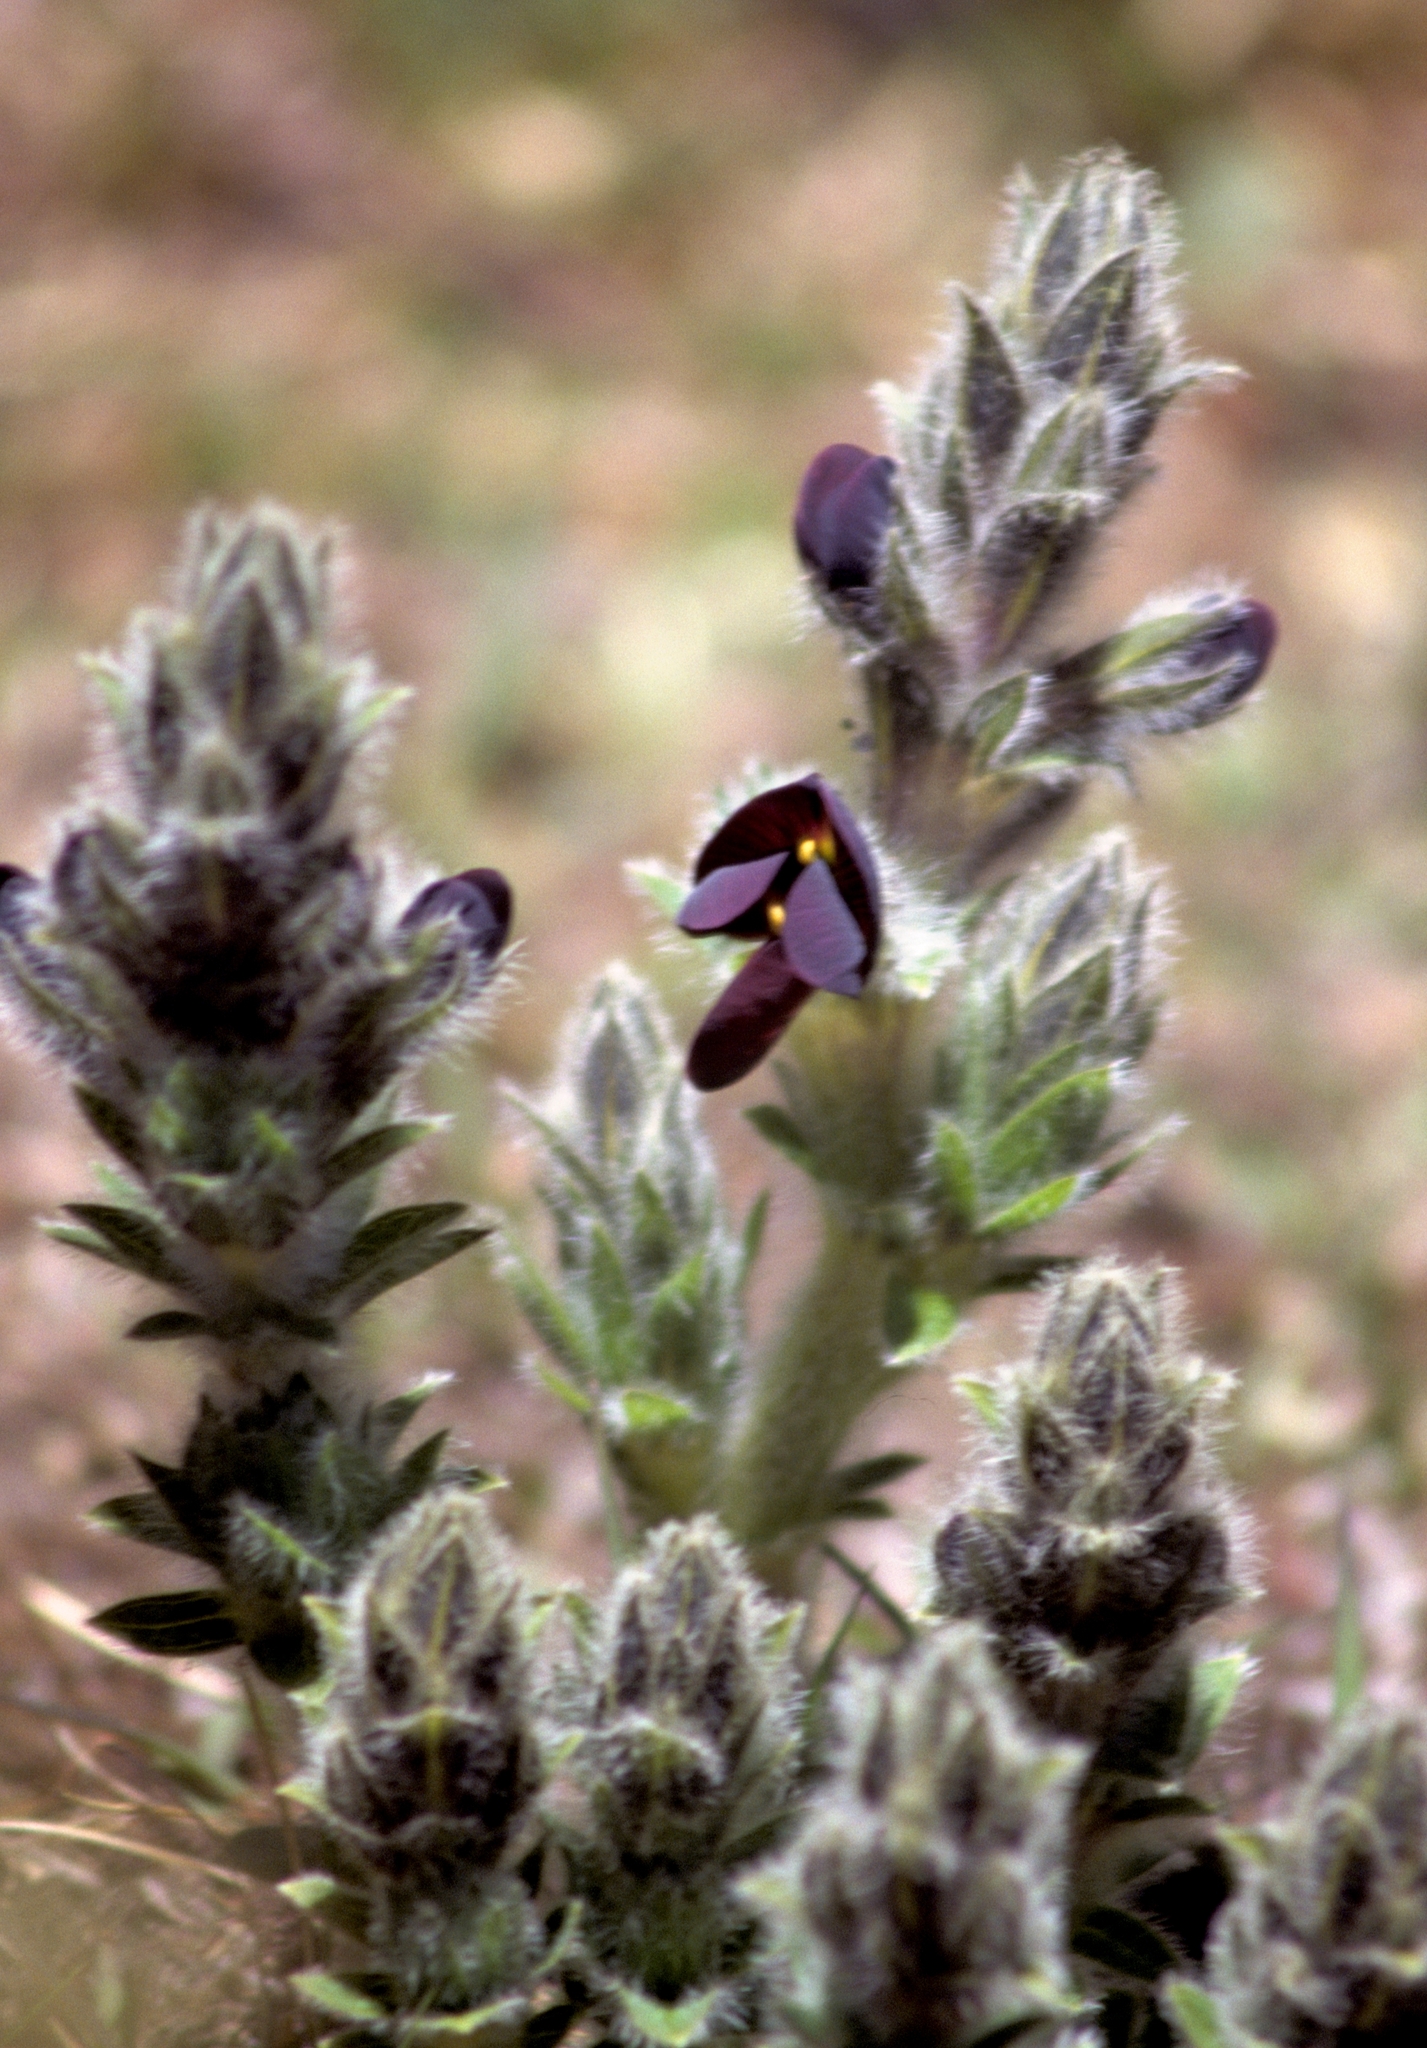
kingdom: Plantae
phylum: Tracheophyta
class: Magnoliopsida
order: Fabales
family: Fabaceae
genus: Thermopsis
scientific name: Thermopsis barbata
